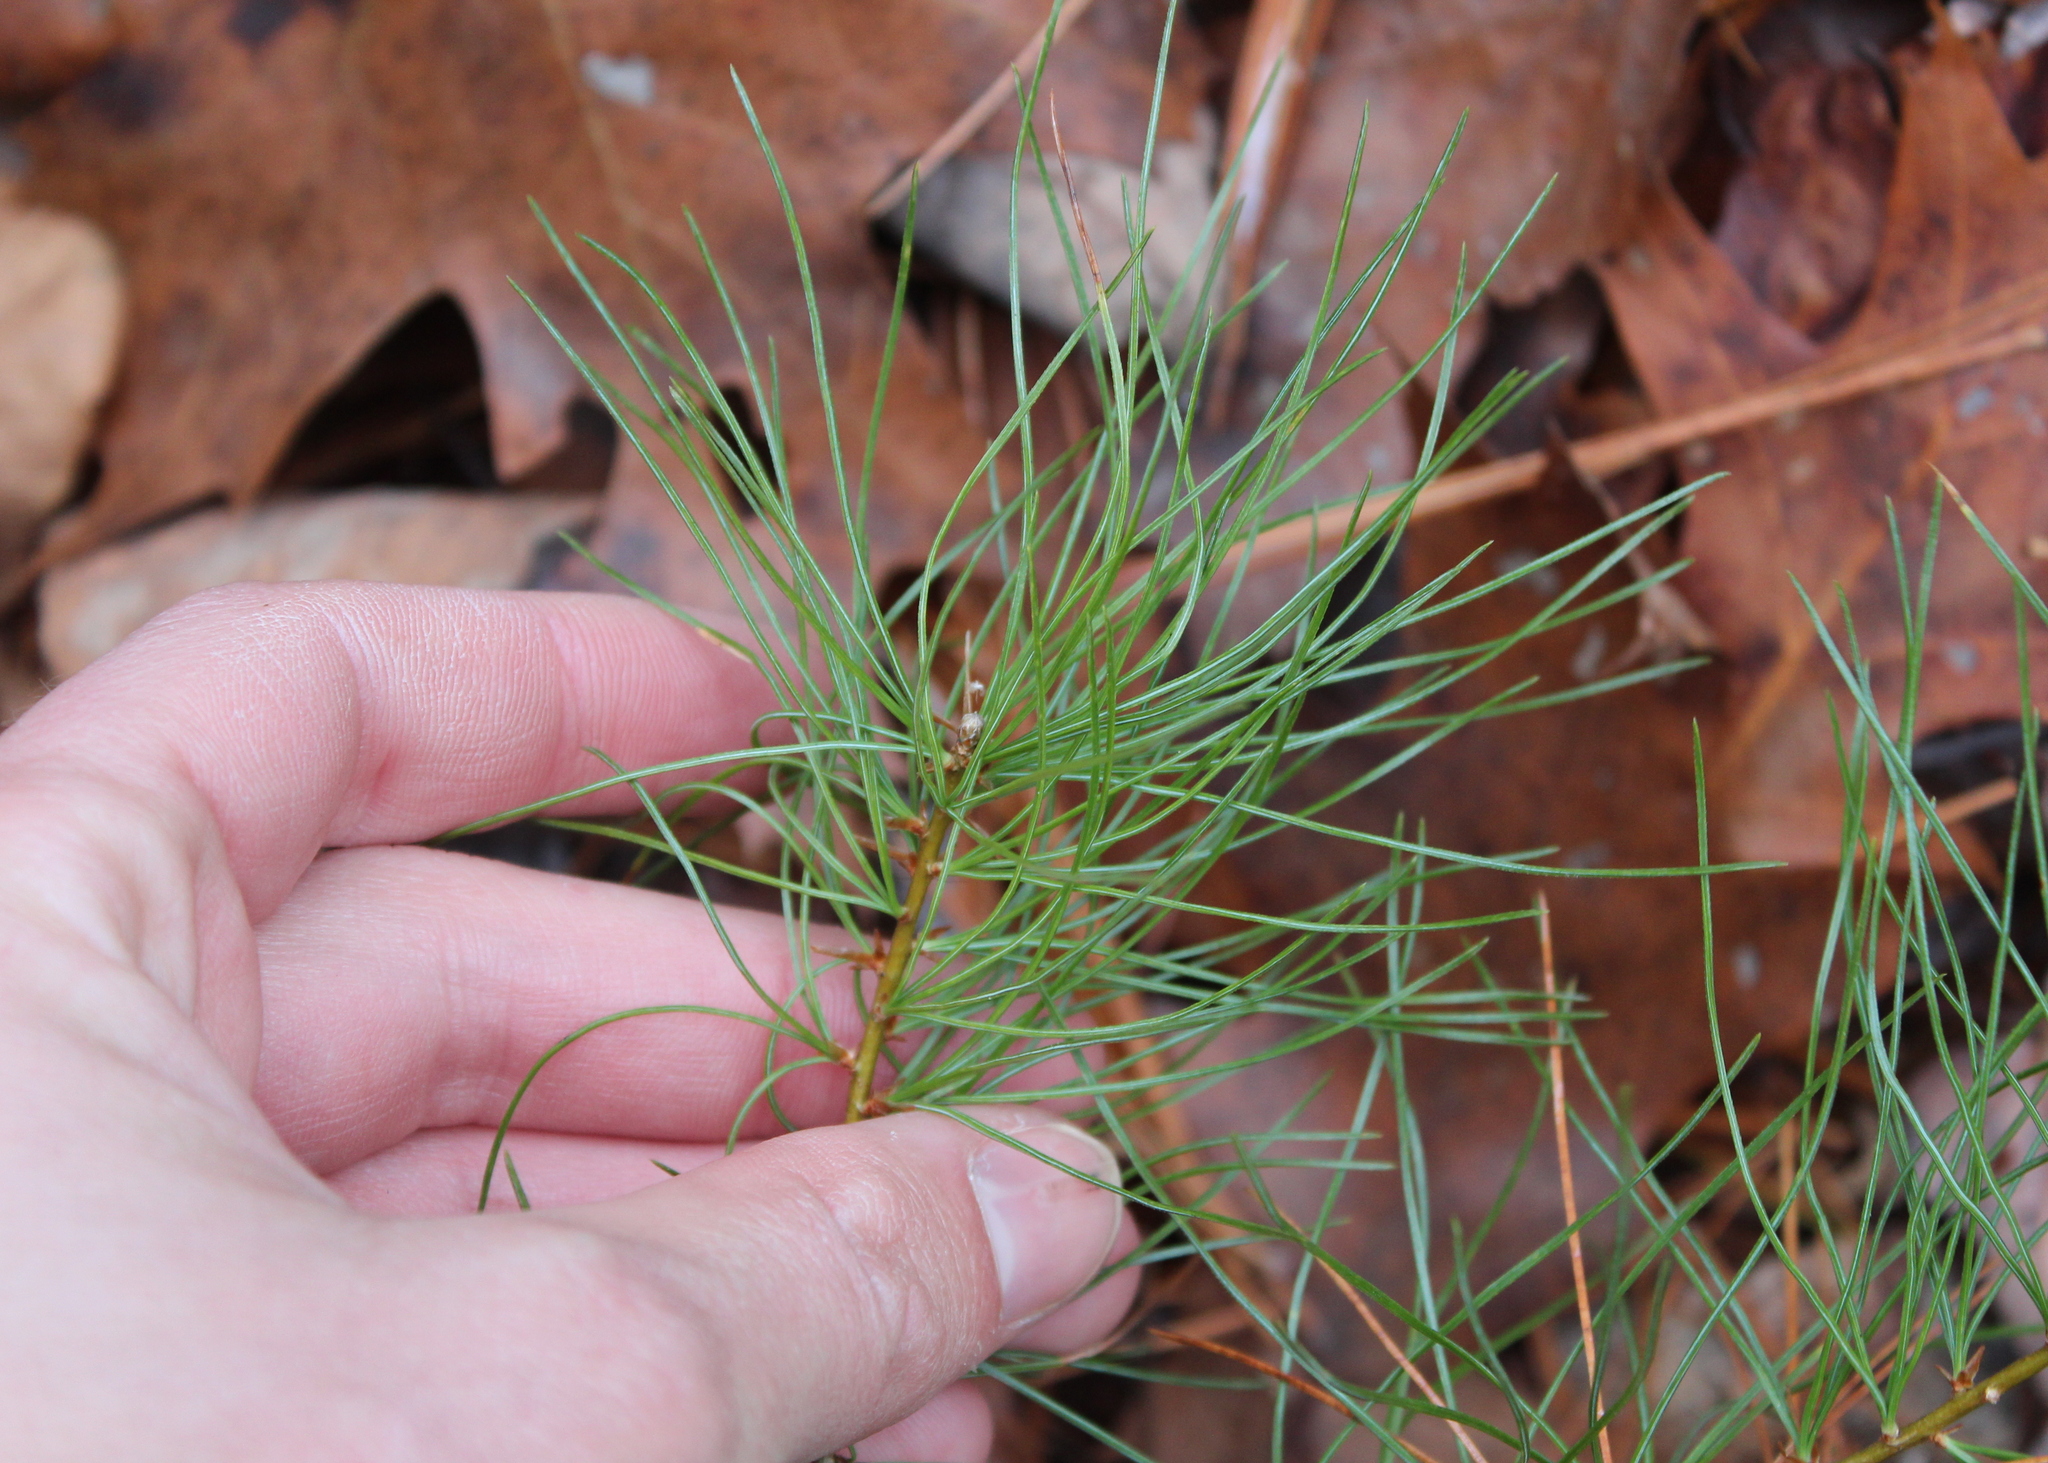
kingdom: Plantae
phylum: Tracheophyta
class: Pinopsida
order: Pinales
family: Pinaceae
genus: Pinus
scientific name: Pinus strobus
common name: Weymouth pine
